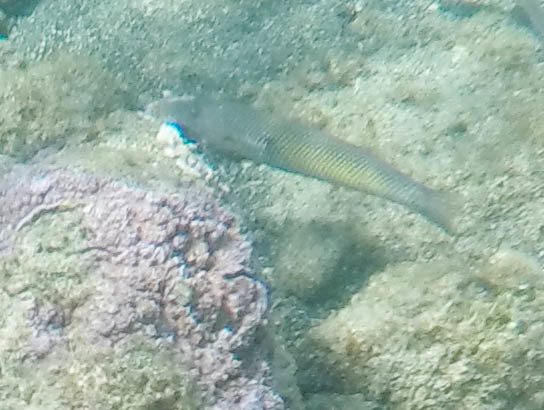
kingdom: Animalia
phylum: Chordata
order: Perciformes
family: Labridae
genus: Cheilio
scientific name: Cheilio inermis
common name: Cigar wrasse
